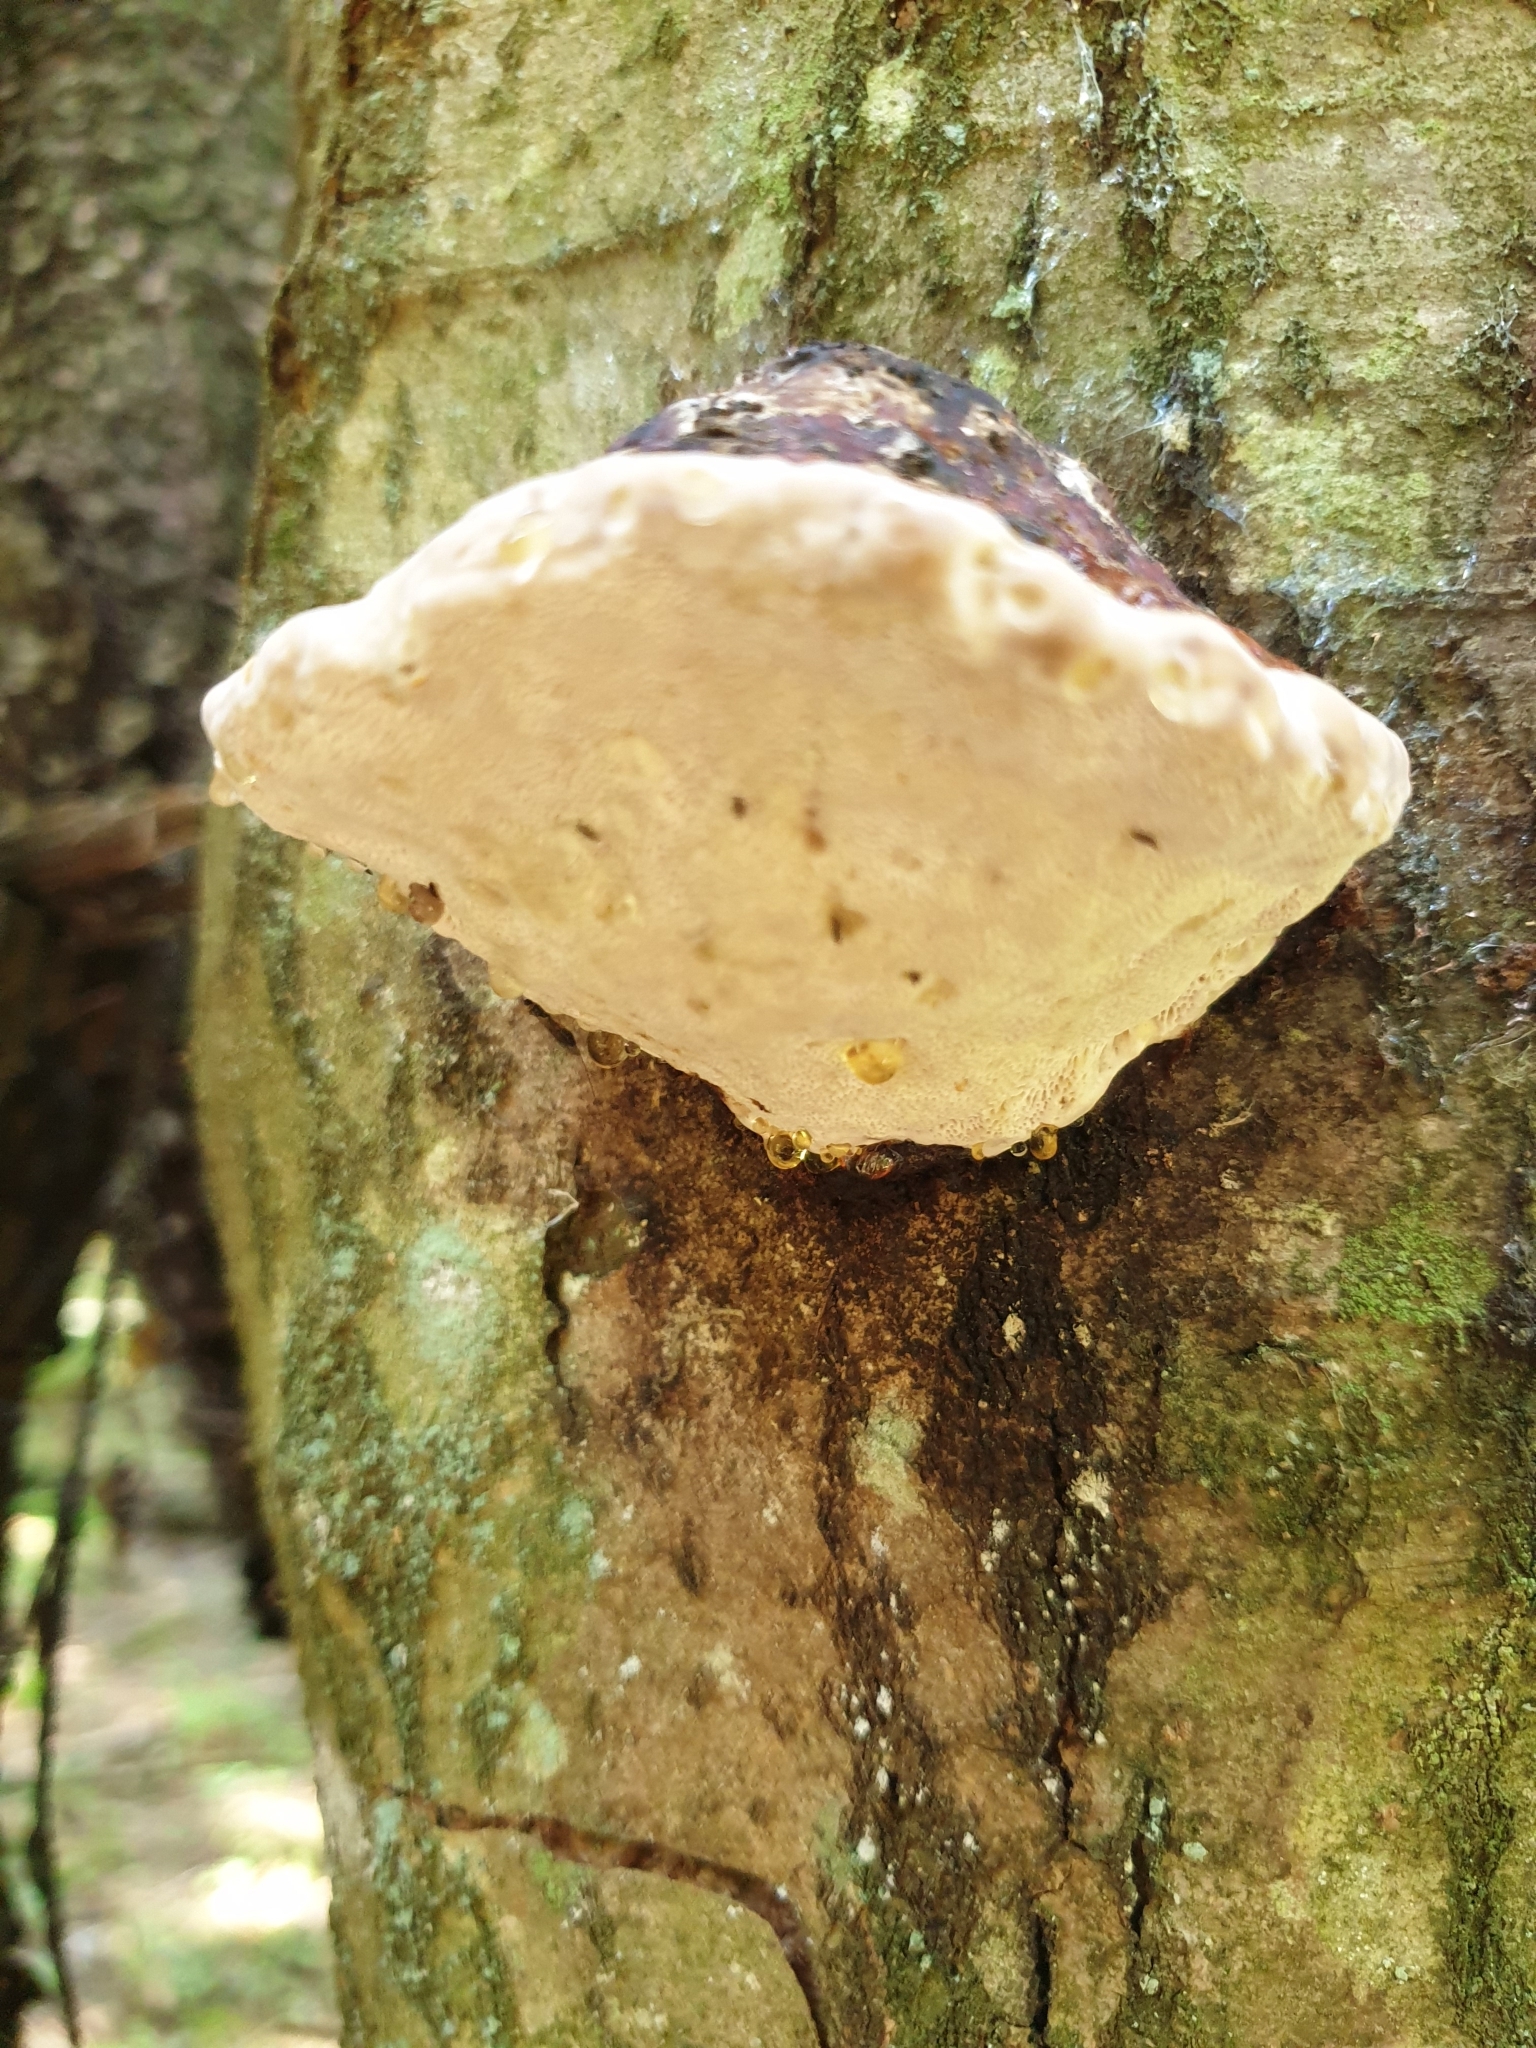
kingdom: Fungi
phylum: Basidiomycota
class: Agaricomycetes
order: Polyporales
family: Fomitopsidaceae
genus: Fomitopsis
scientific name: Fomitopsis pinicola
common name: Red-belted bracket
